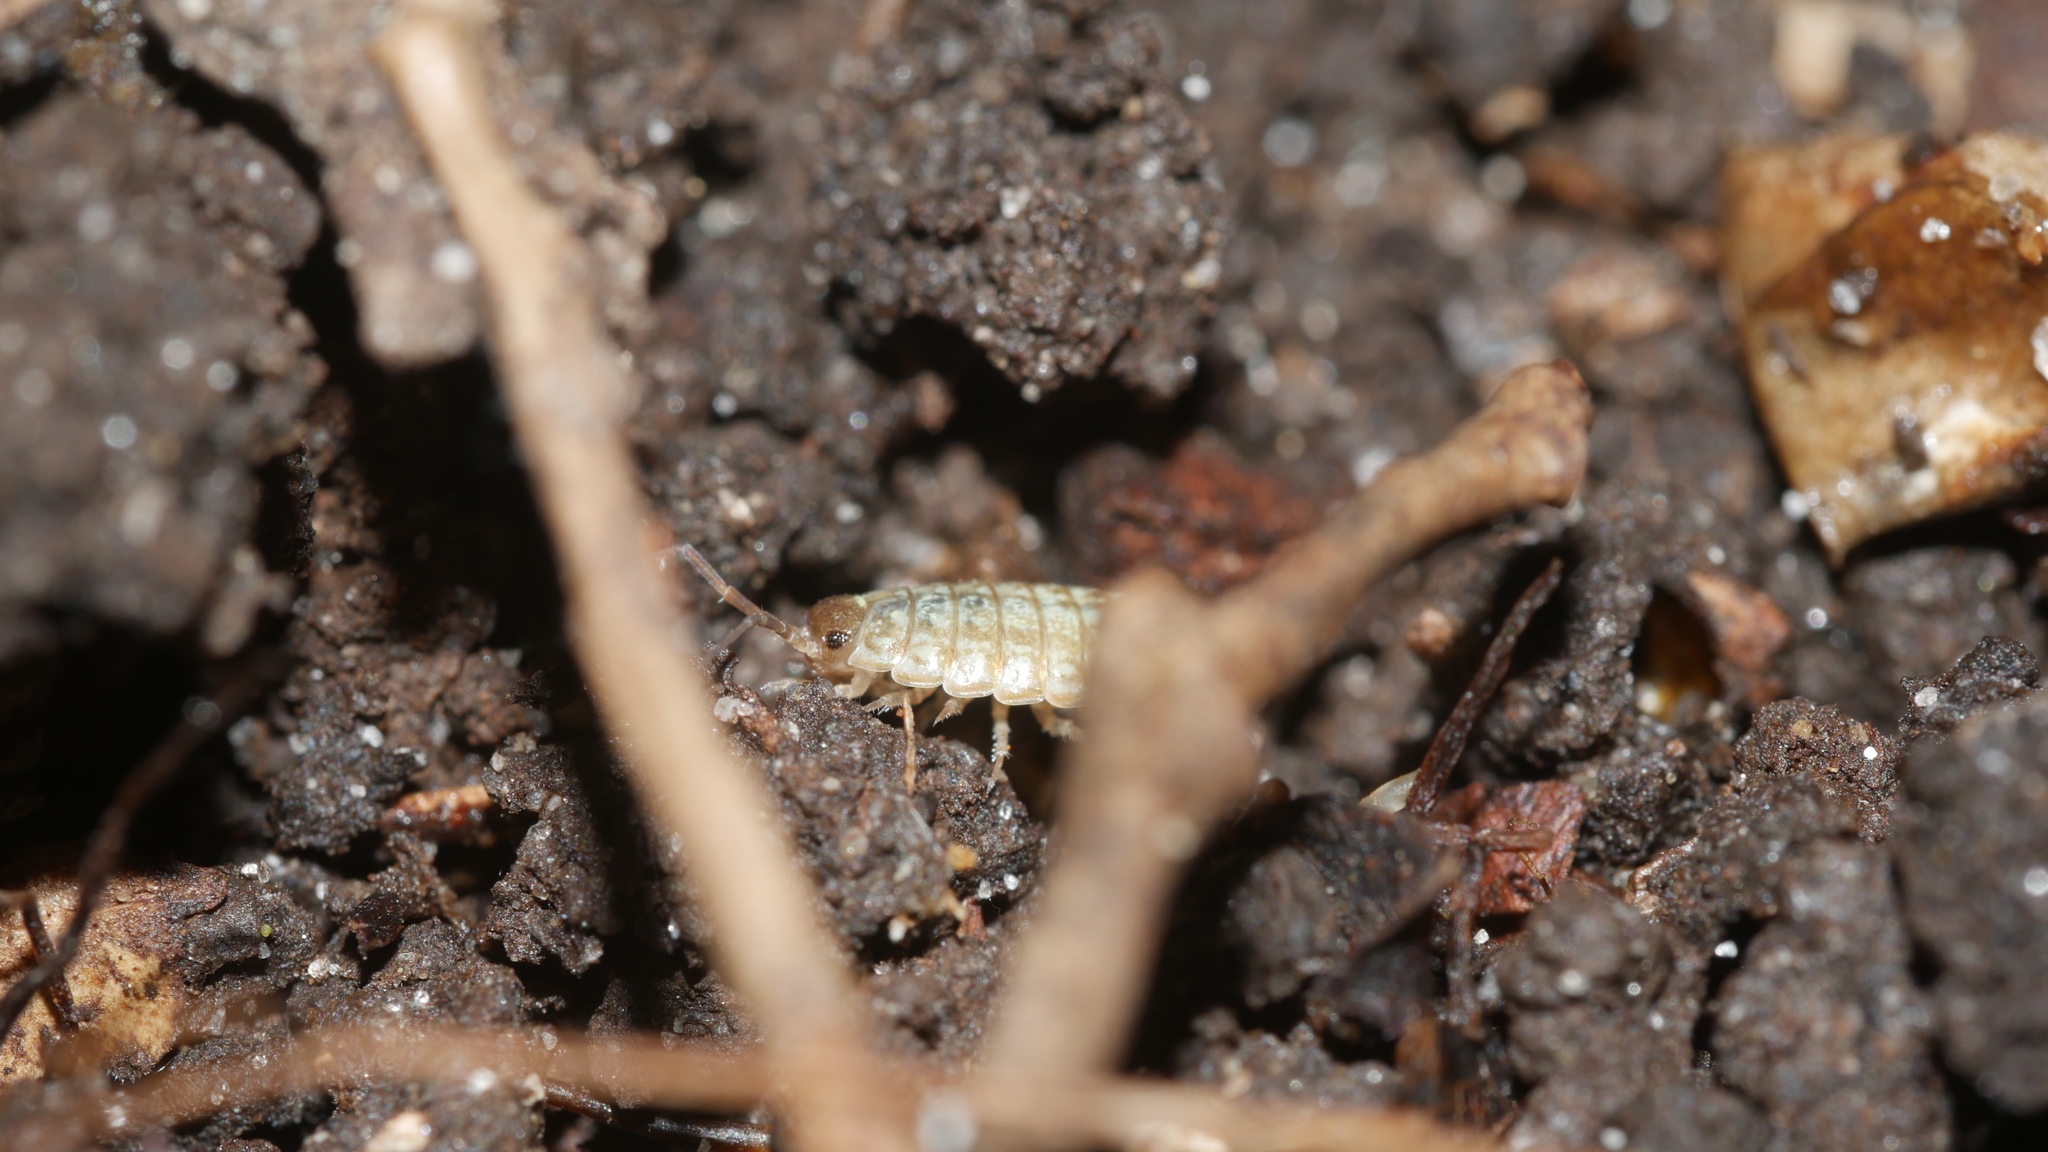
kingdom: Animalia
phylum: Arthropoda
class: Malacostraca
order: Isopoda
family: Philosciidae
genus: Philoscia
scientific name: Philoscia muscorum
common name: Common striped woodlouse
